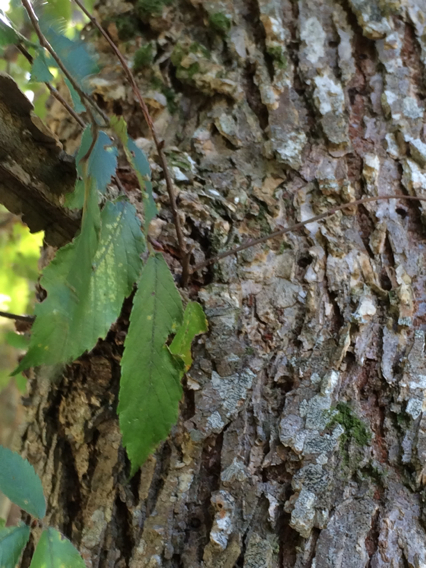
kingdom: Plantae
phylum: Tracheophyta
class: Magnoliopsida
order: Rosales
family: Ulmaceae
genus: Ulmus
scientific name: Ulmus alata
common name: Winged elm
